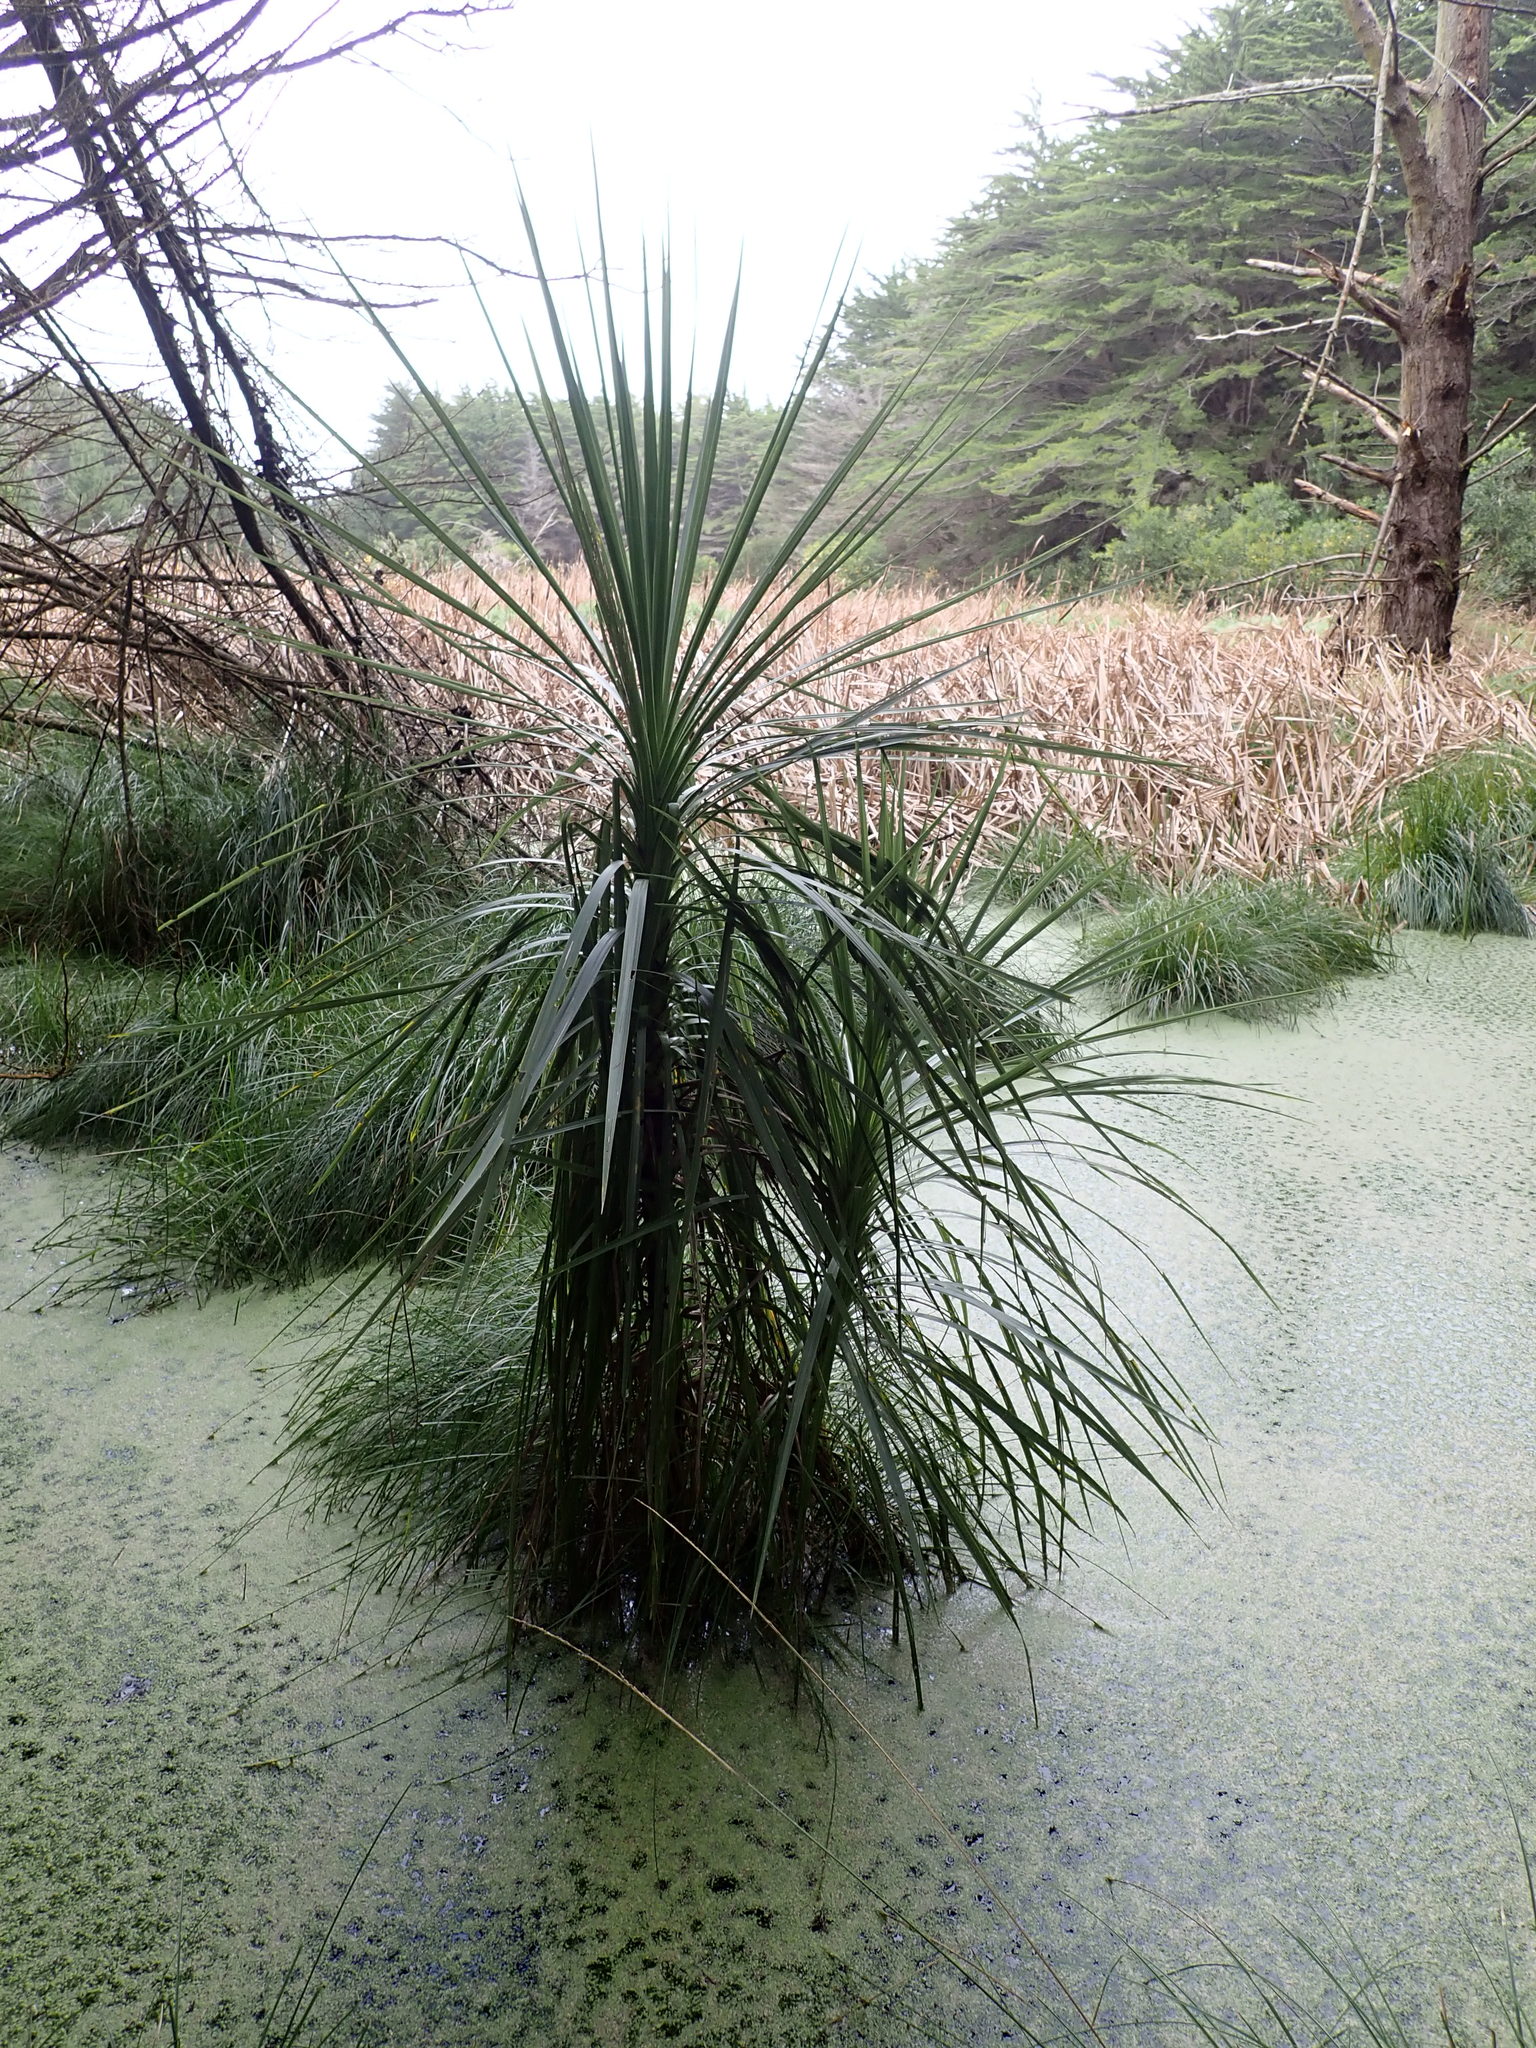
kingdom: Plantae
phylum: Tracheophyta
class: Liliopsida
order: Asparagales
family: Asparagaceae
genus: Cordyline
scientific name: Cordyline australis
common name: Cabbage-palm
